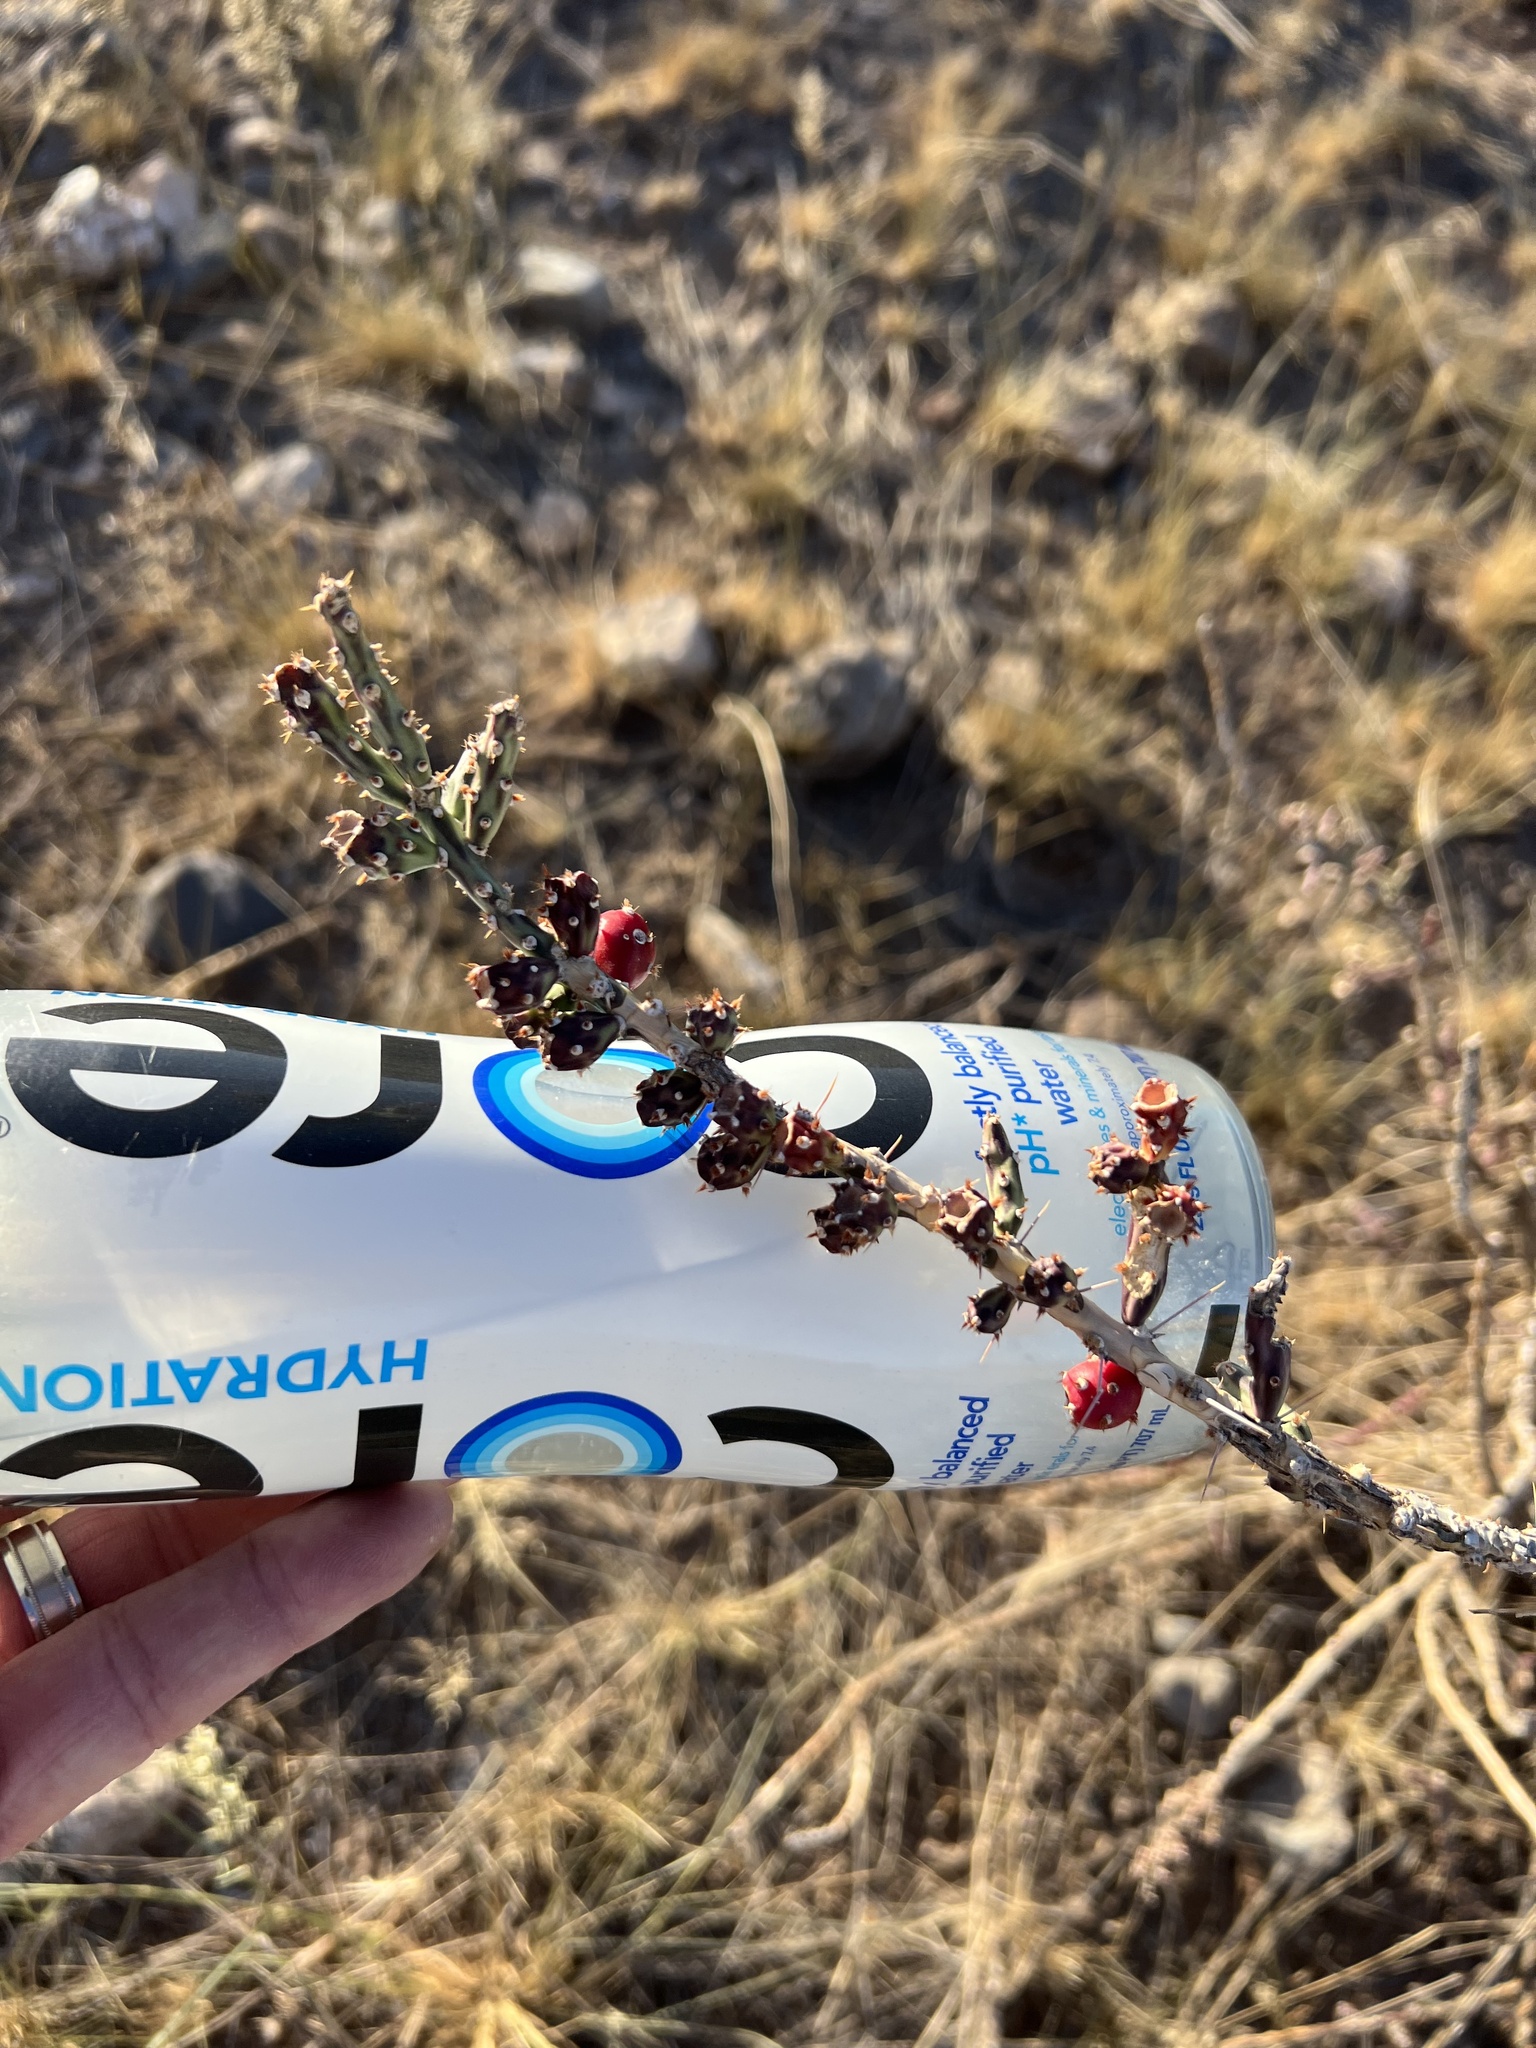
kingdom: Plantae
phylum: Tracheophyta
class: Magnoliopsida
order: Caryophyllales
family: Cactaceae
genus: Cylindropuntia
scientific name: Cylindropuntia leptocaulis
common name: Christmas cactus
